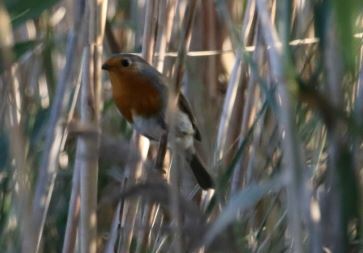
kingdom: Animalia
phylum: Chordata
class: Aves
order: Passeriformes
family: Muscicapidae
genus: Erithacus
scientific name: Erithacus rubecula
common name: European robin
